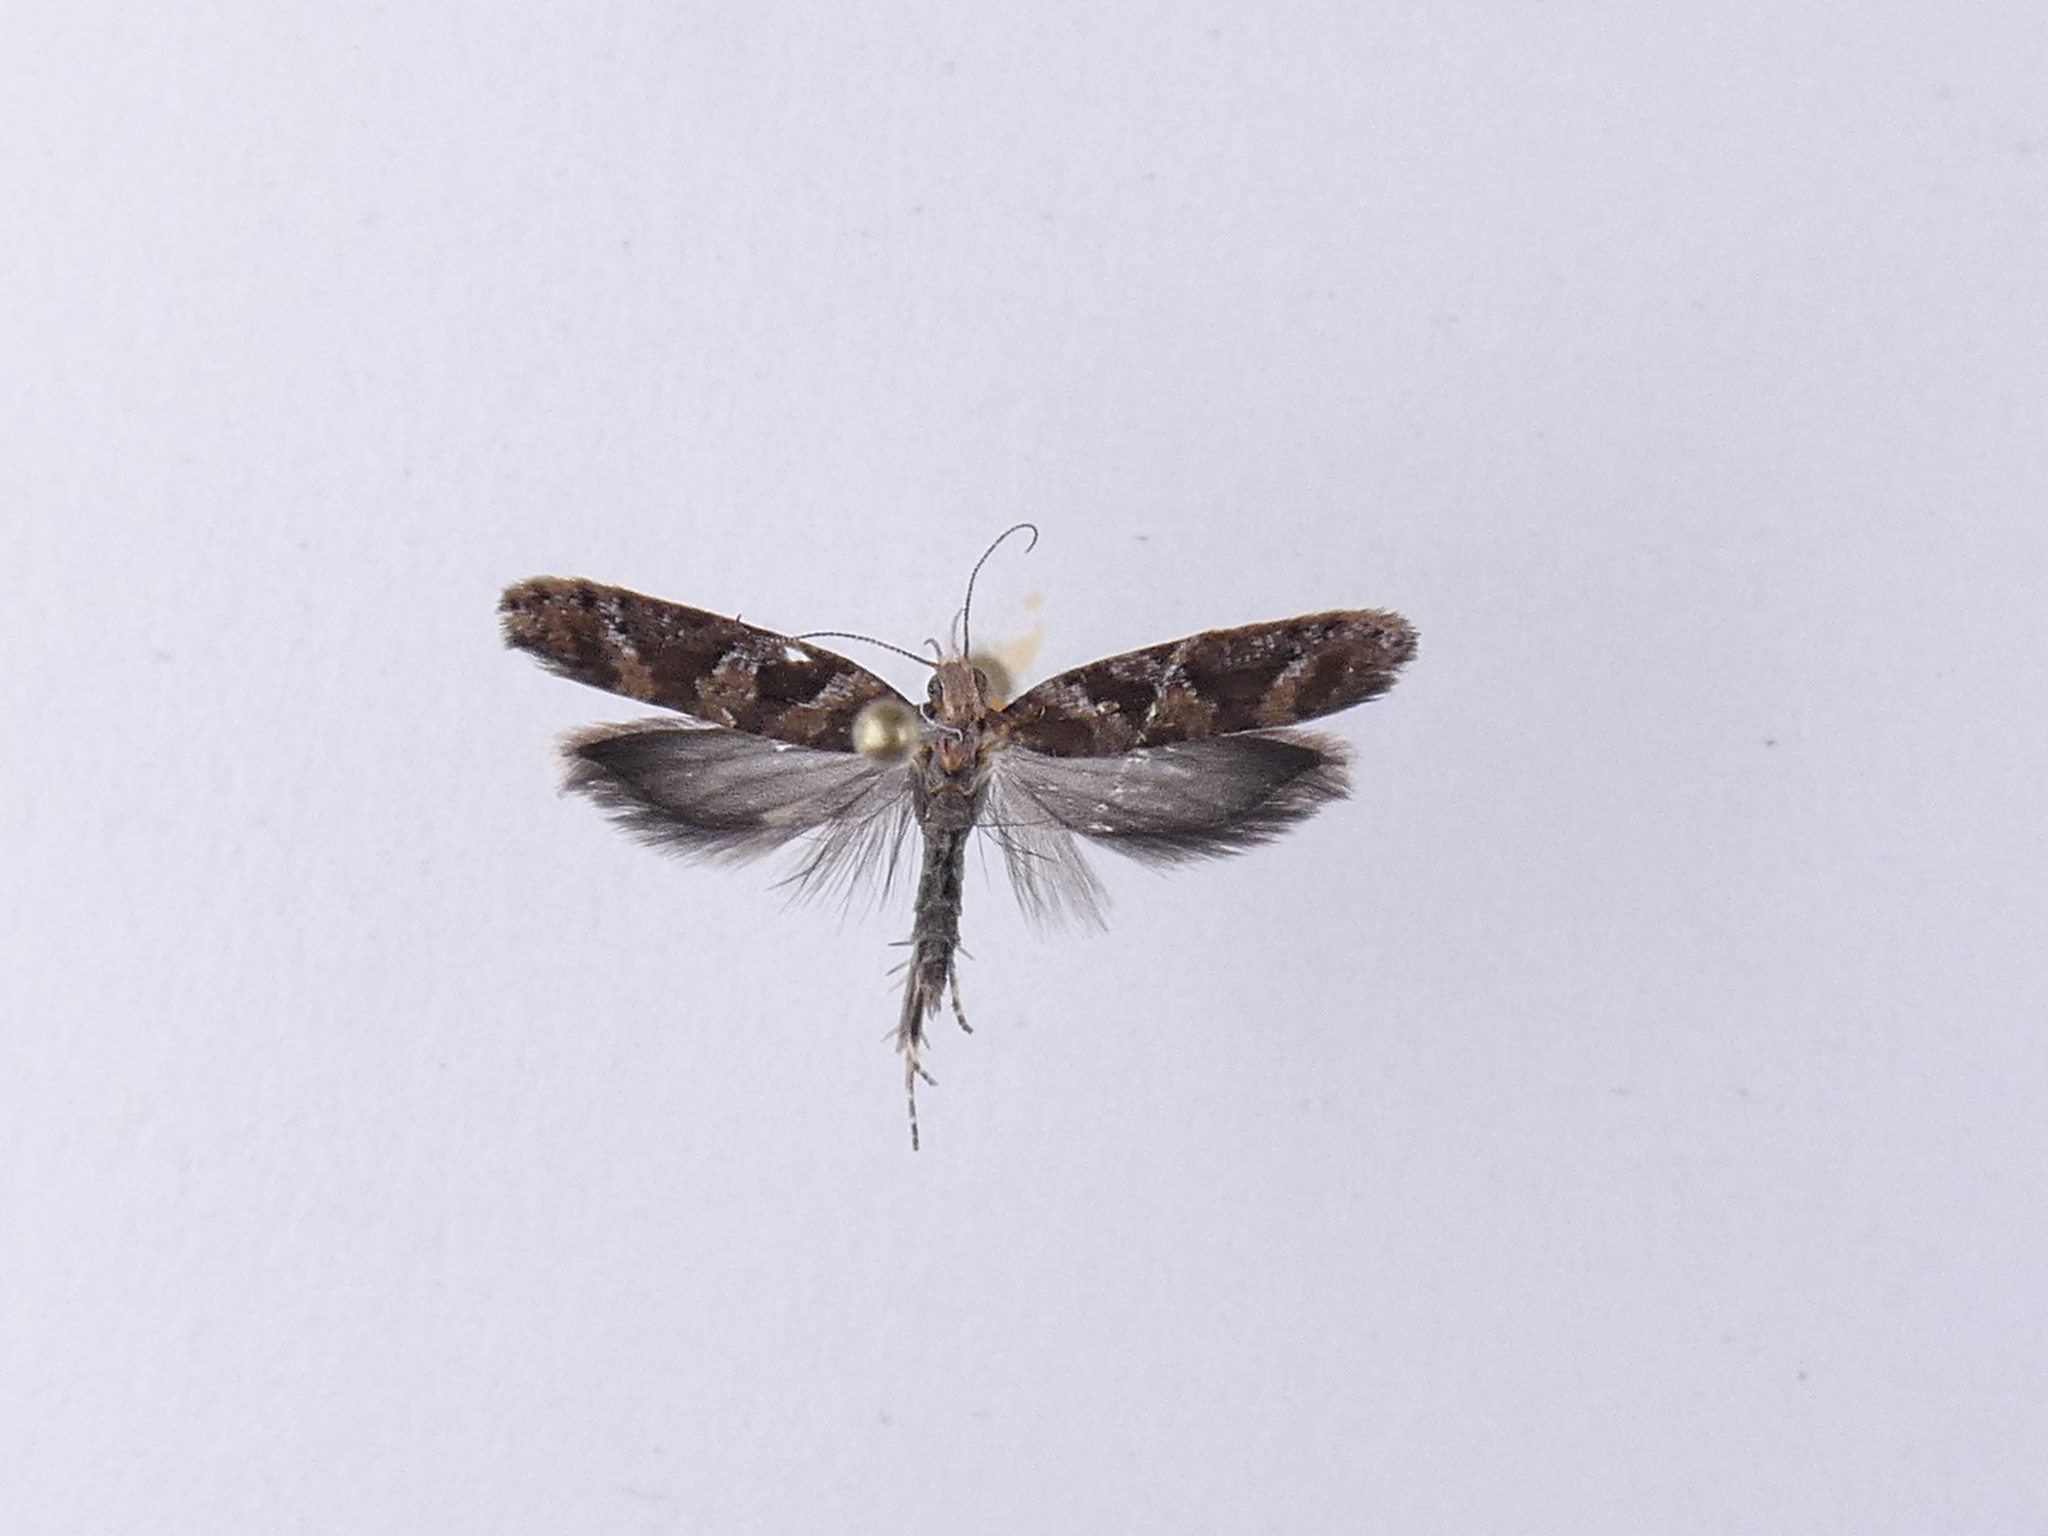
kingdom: Animalia
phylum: Arthropoda
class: Insecta
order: Lepidoptera
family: Glyphipterigidae
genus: Chrysorthenches
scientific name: Chrysorthenches porphyritis
